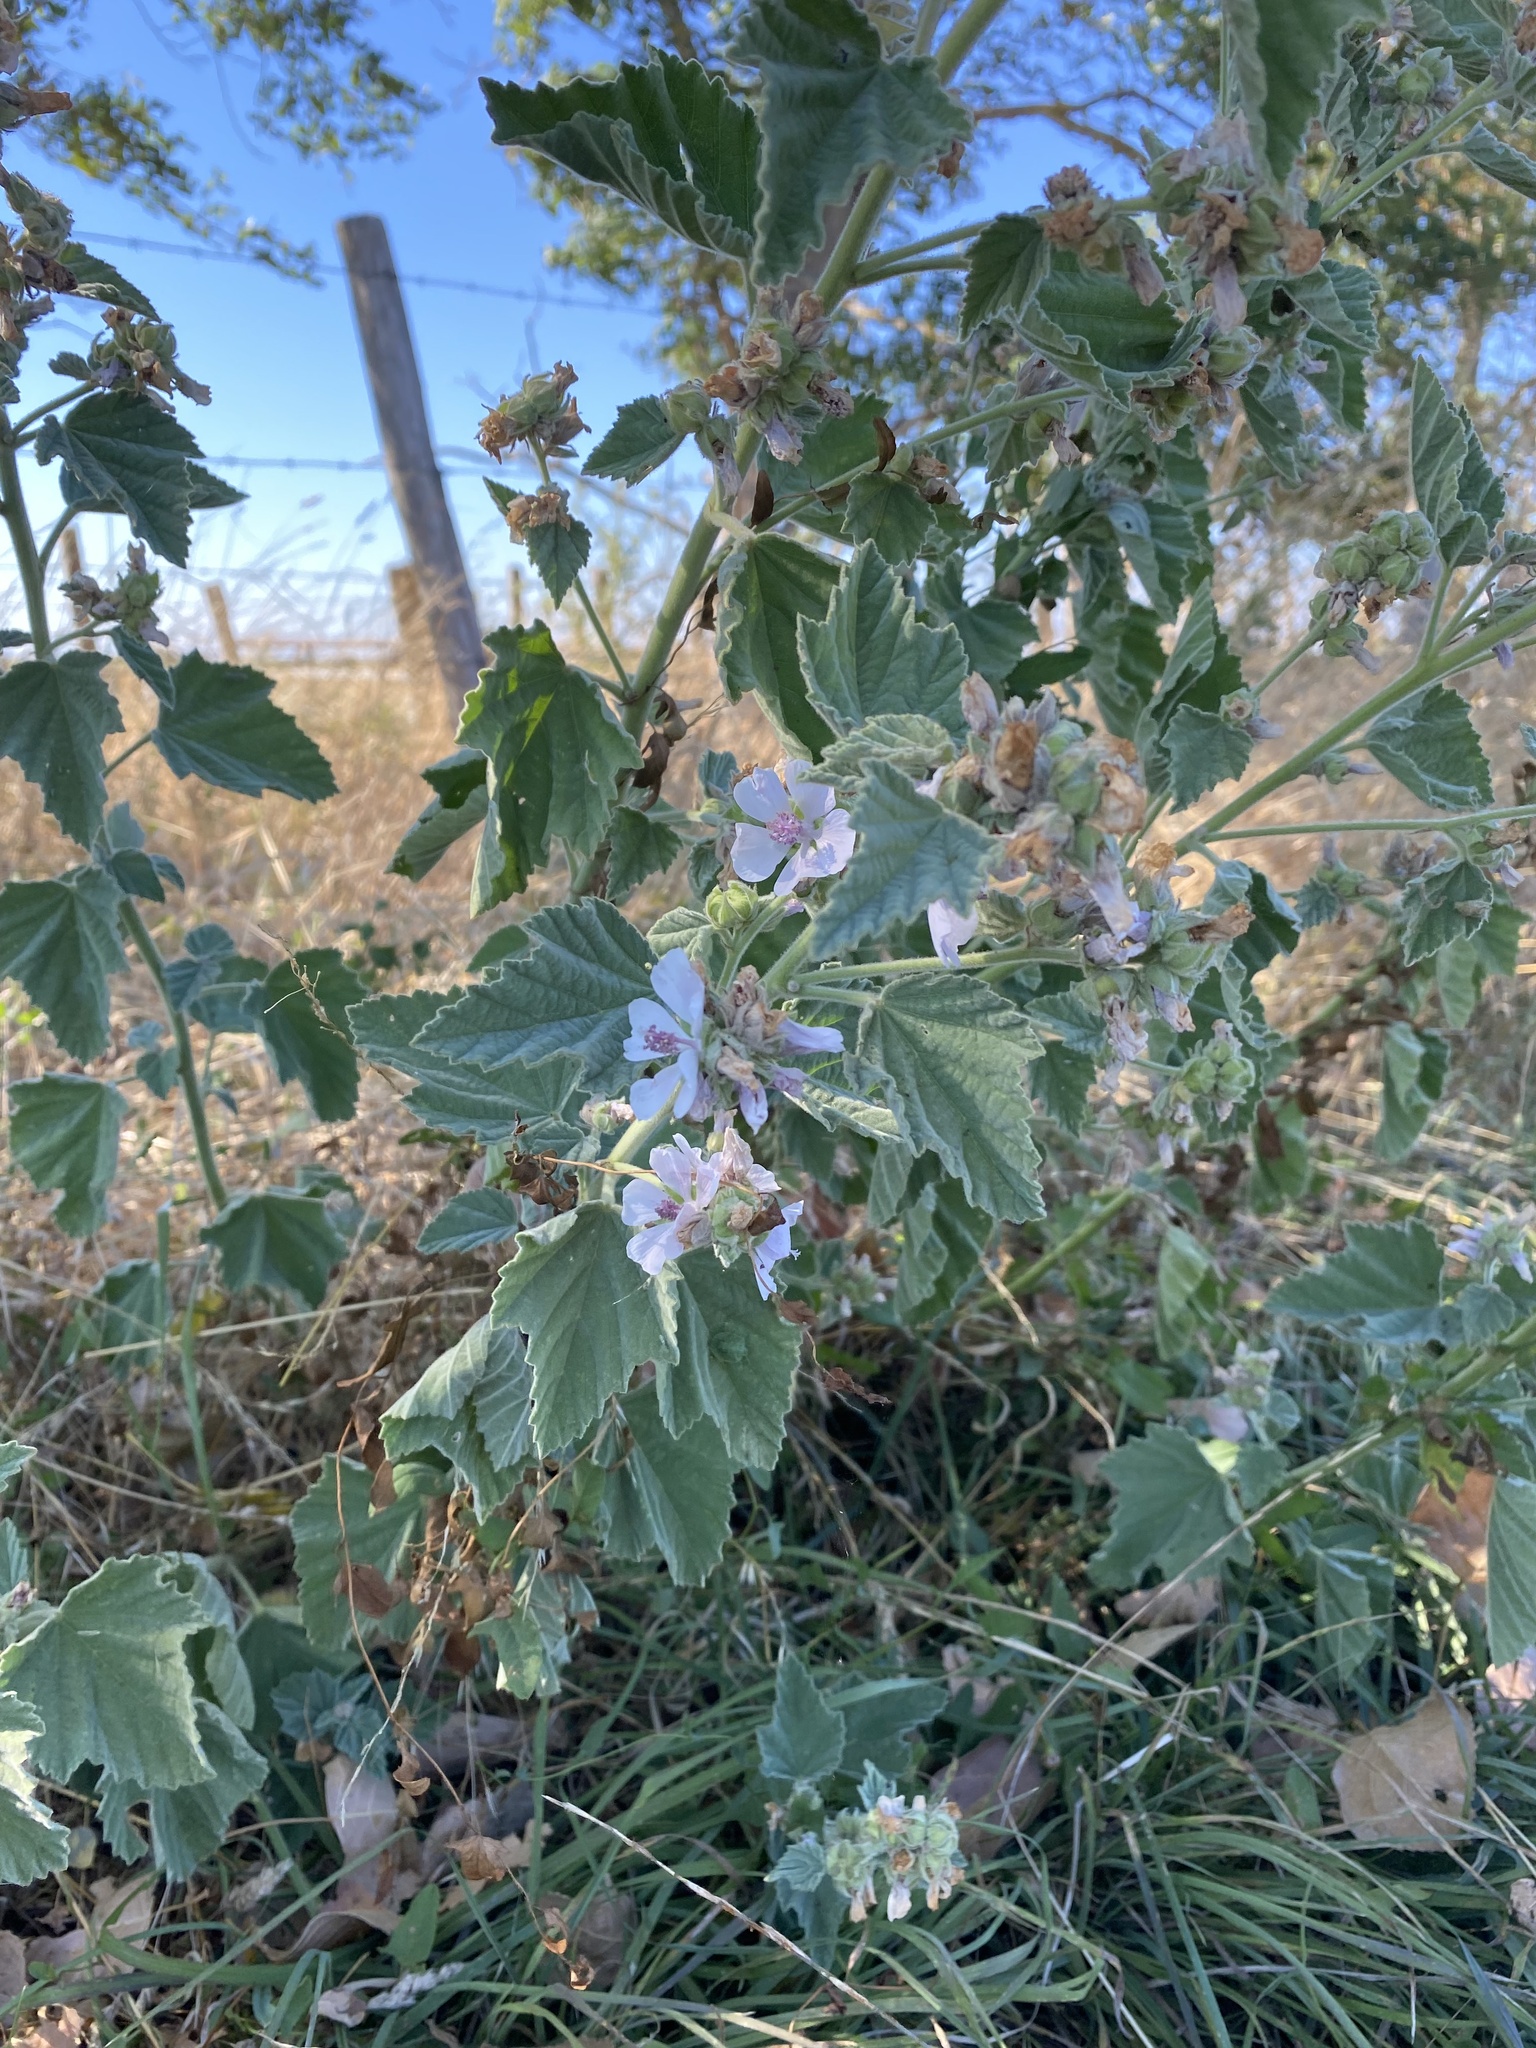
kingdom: Plantae
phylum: Tracheophyta
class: Magnoliopsida
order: Malvales
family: Malvaceae
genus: Althaea
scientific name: Althaea officinalis
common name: Marsh-mallow
